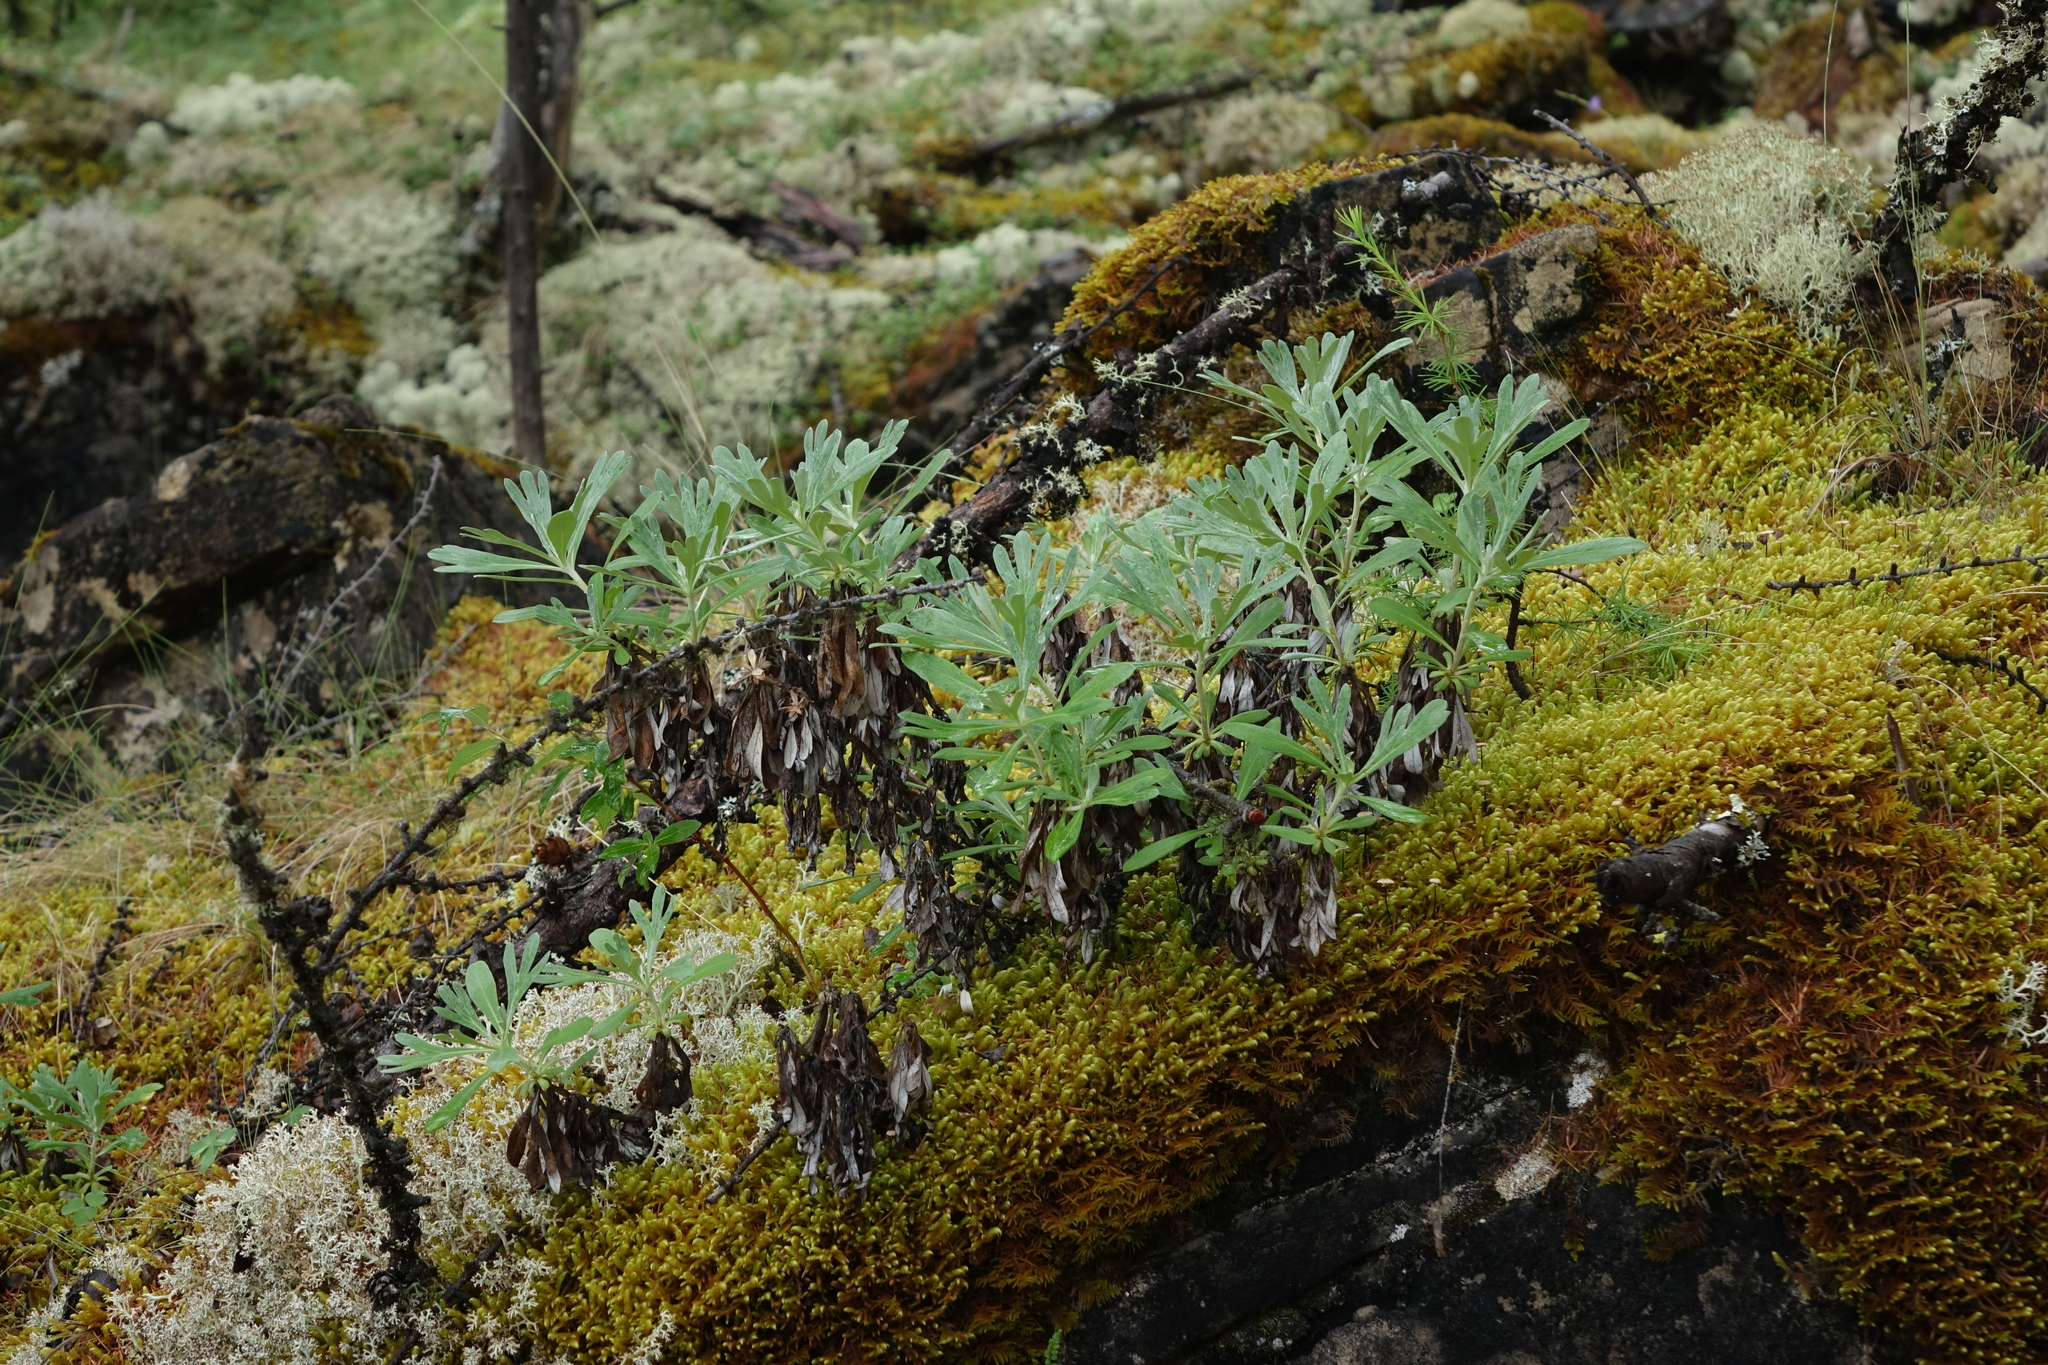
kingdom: Plantae
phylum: Tracheophyta
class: Magnoliopsida
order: Asterales
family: Asteraceae
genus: Artemisia
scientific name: Artemisia lagocephala
